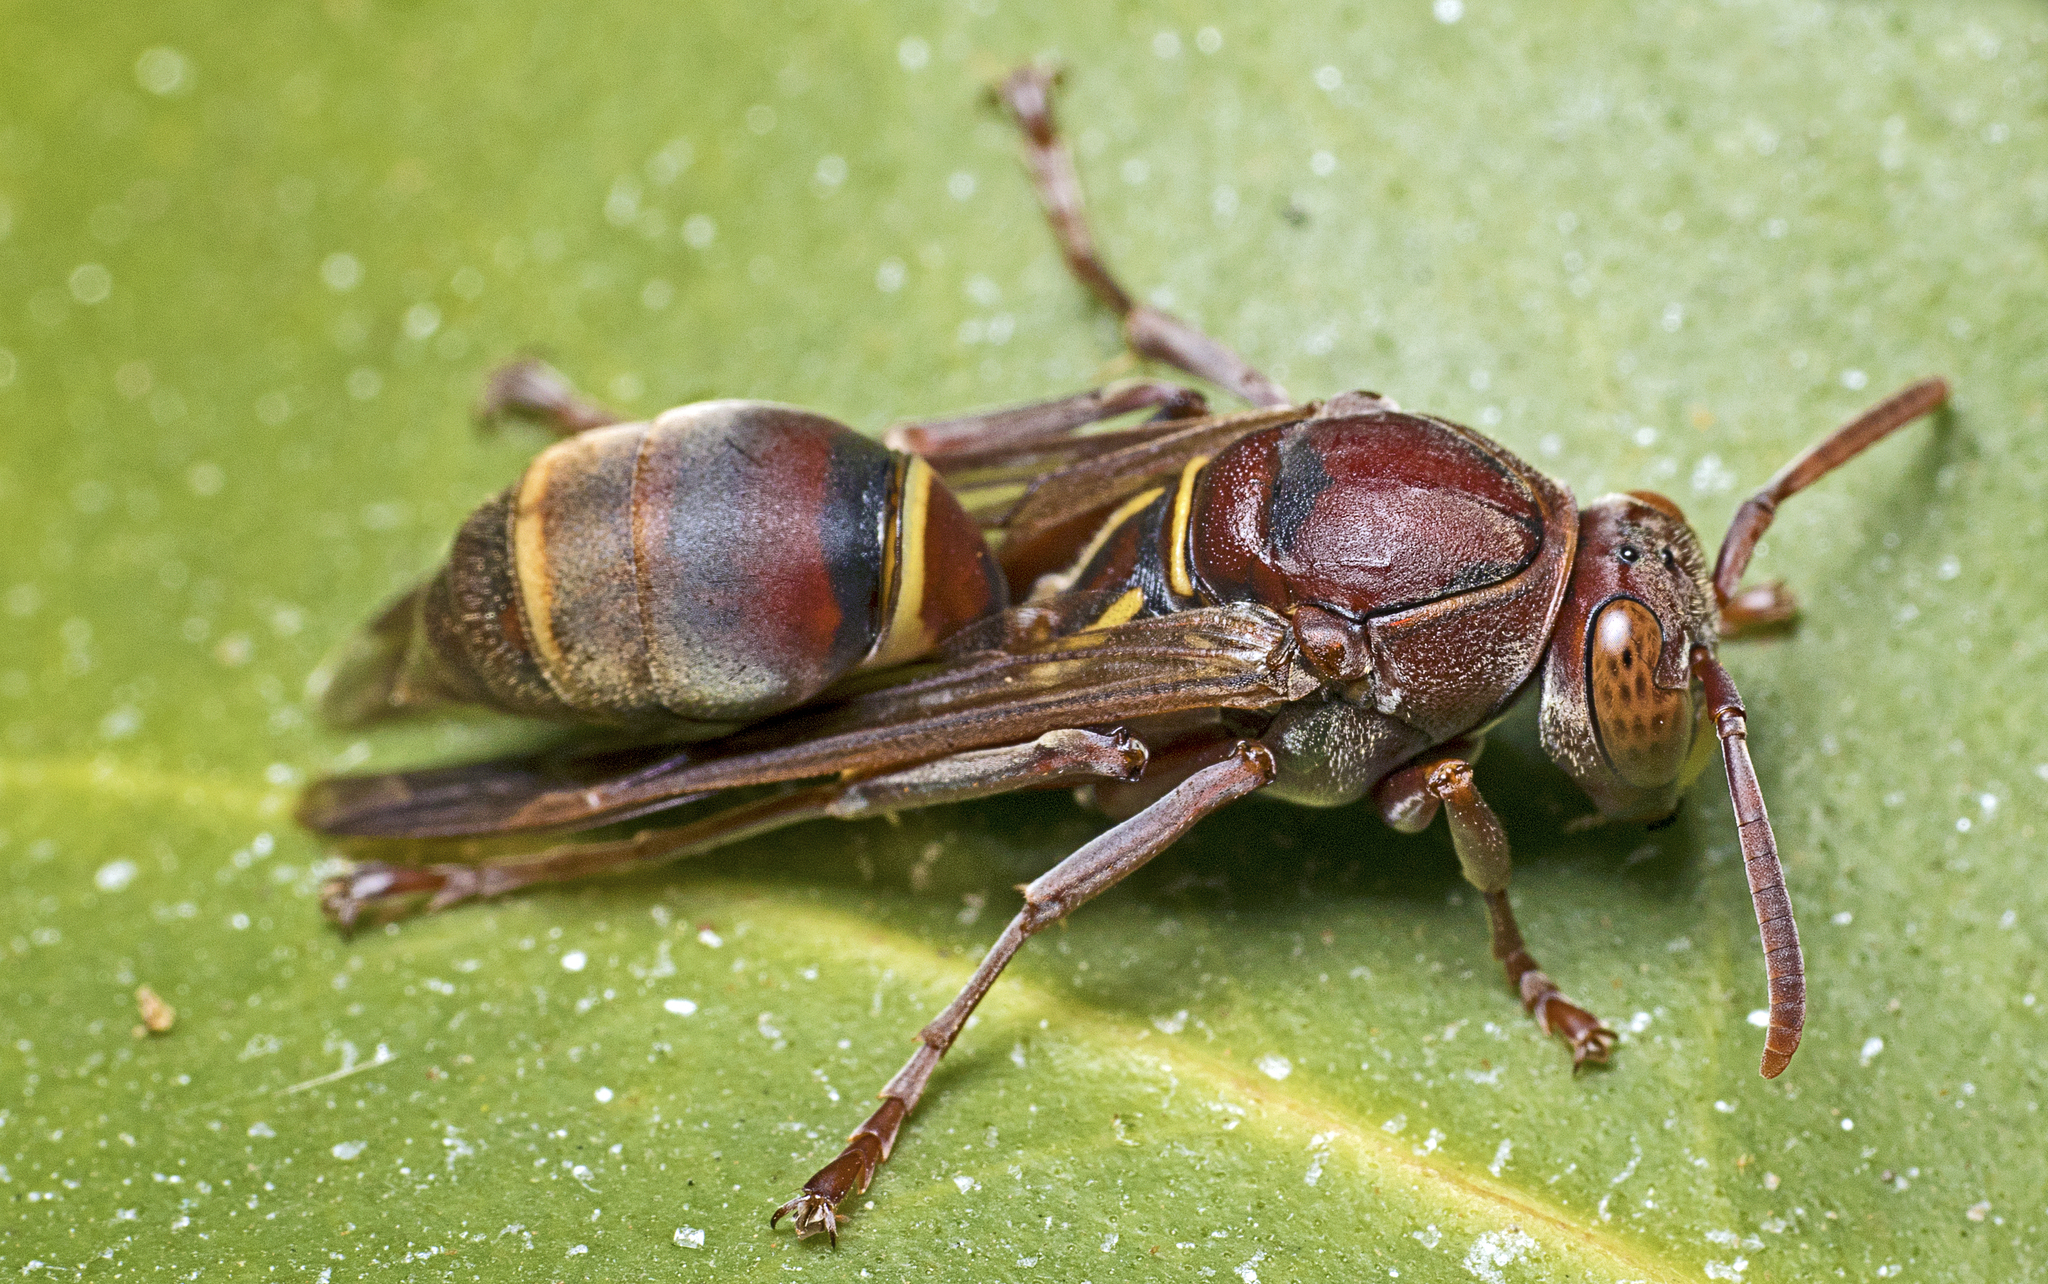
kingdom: Animalia
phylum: Arthropoda
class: Insecta
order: Hymenoptera
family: Eumenidae
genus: Polistes
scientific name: Polistes humilis
